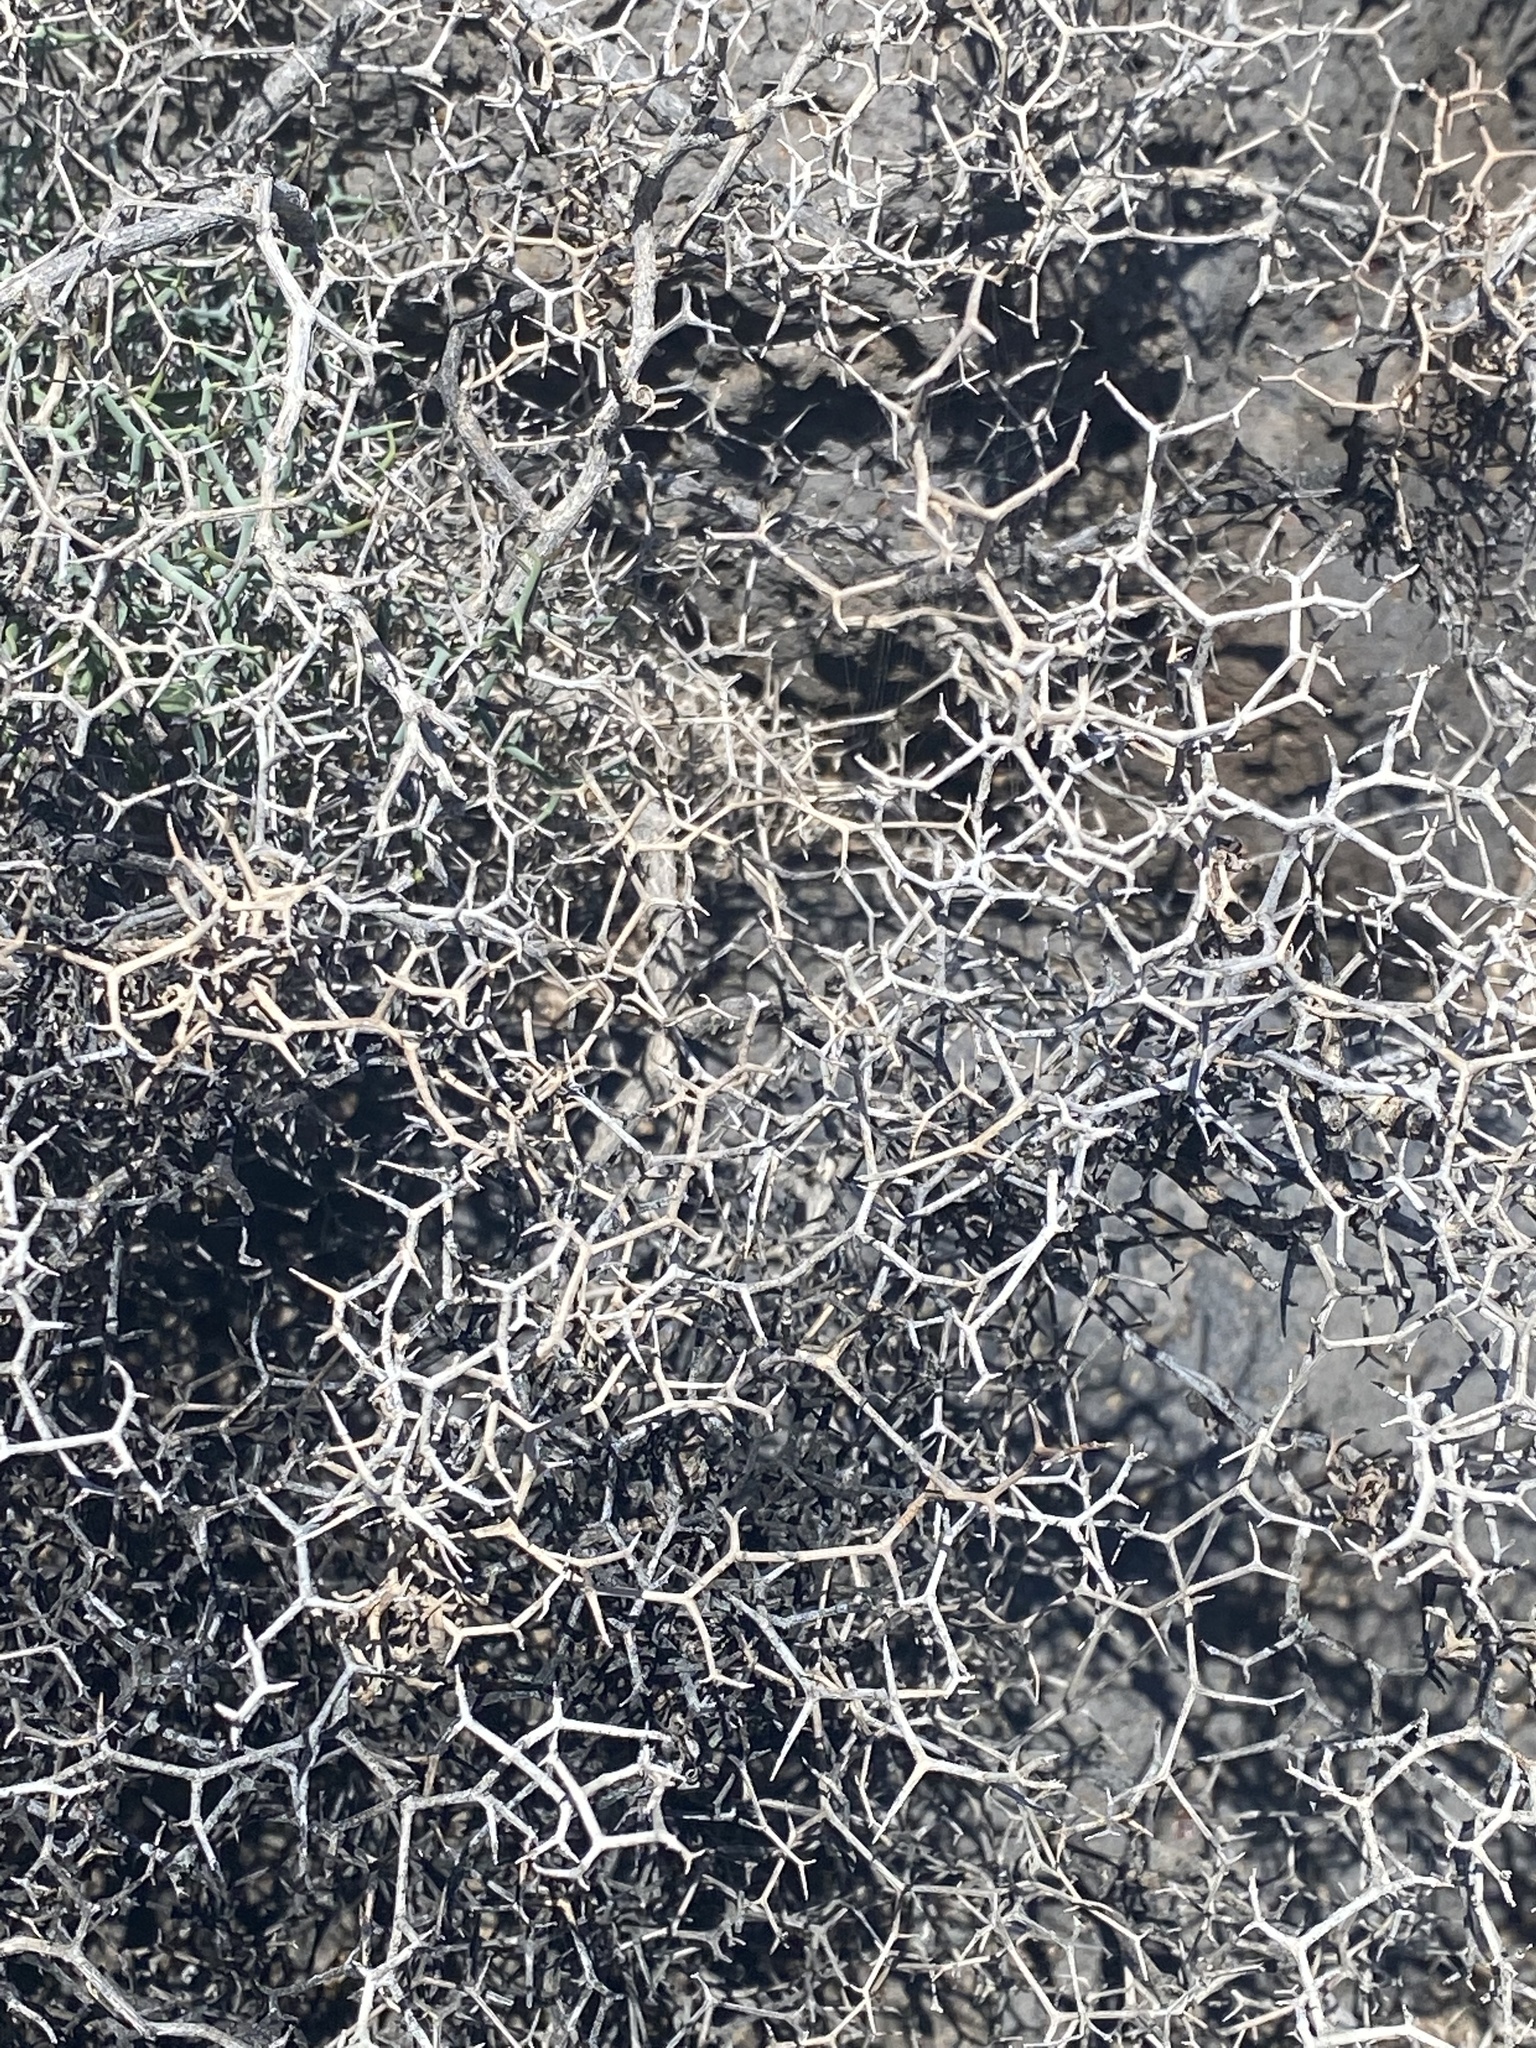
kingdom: Plantae
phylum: Tracheophyta
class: Magnoliopsida
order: Asterales
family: Asteraceae
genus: Launaea
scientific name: Launaea arborescens
